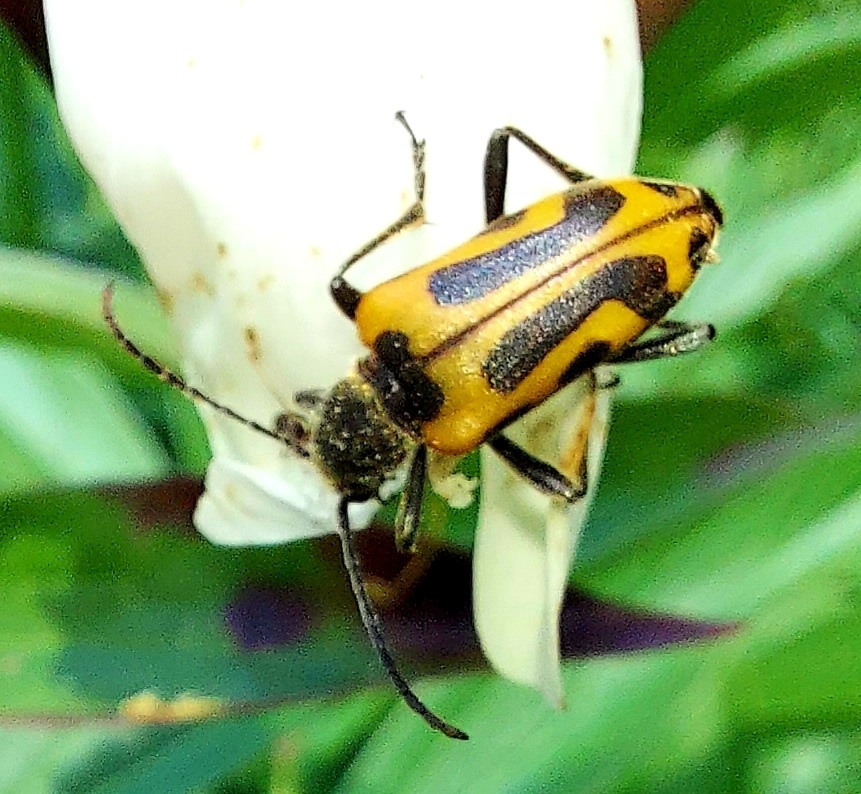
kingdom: Animalia
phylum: Arthropoda
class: Insecta
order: Coleoptera
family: Cerambycidae
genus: Brachyta
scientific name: Brachyta interrogationis
